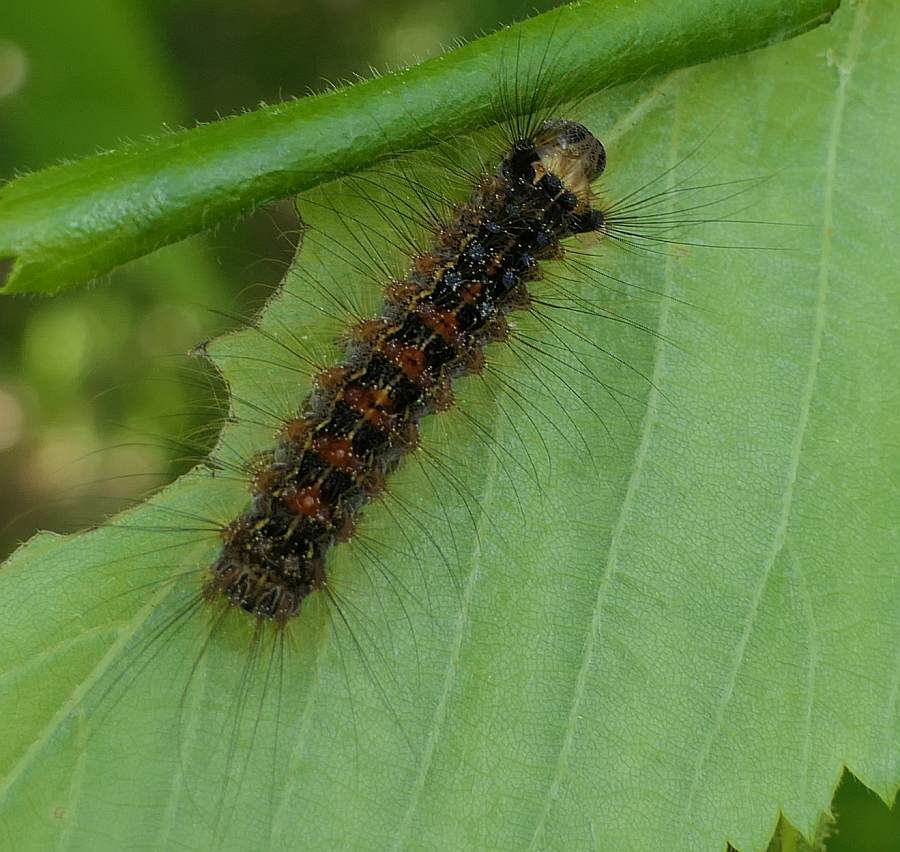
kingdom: Animalia
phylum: Arthropoda
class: Insecta
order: Lepidoptera
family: Erebidae
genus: Lymantria
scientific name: Lymantria dispar
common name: Gypsy moth
